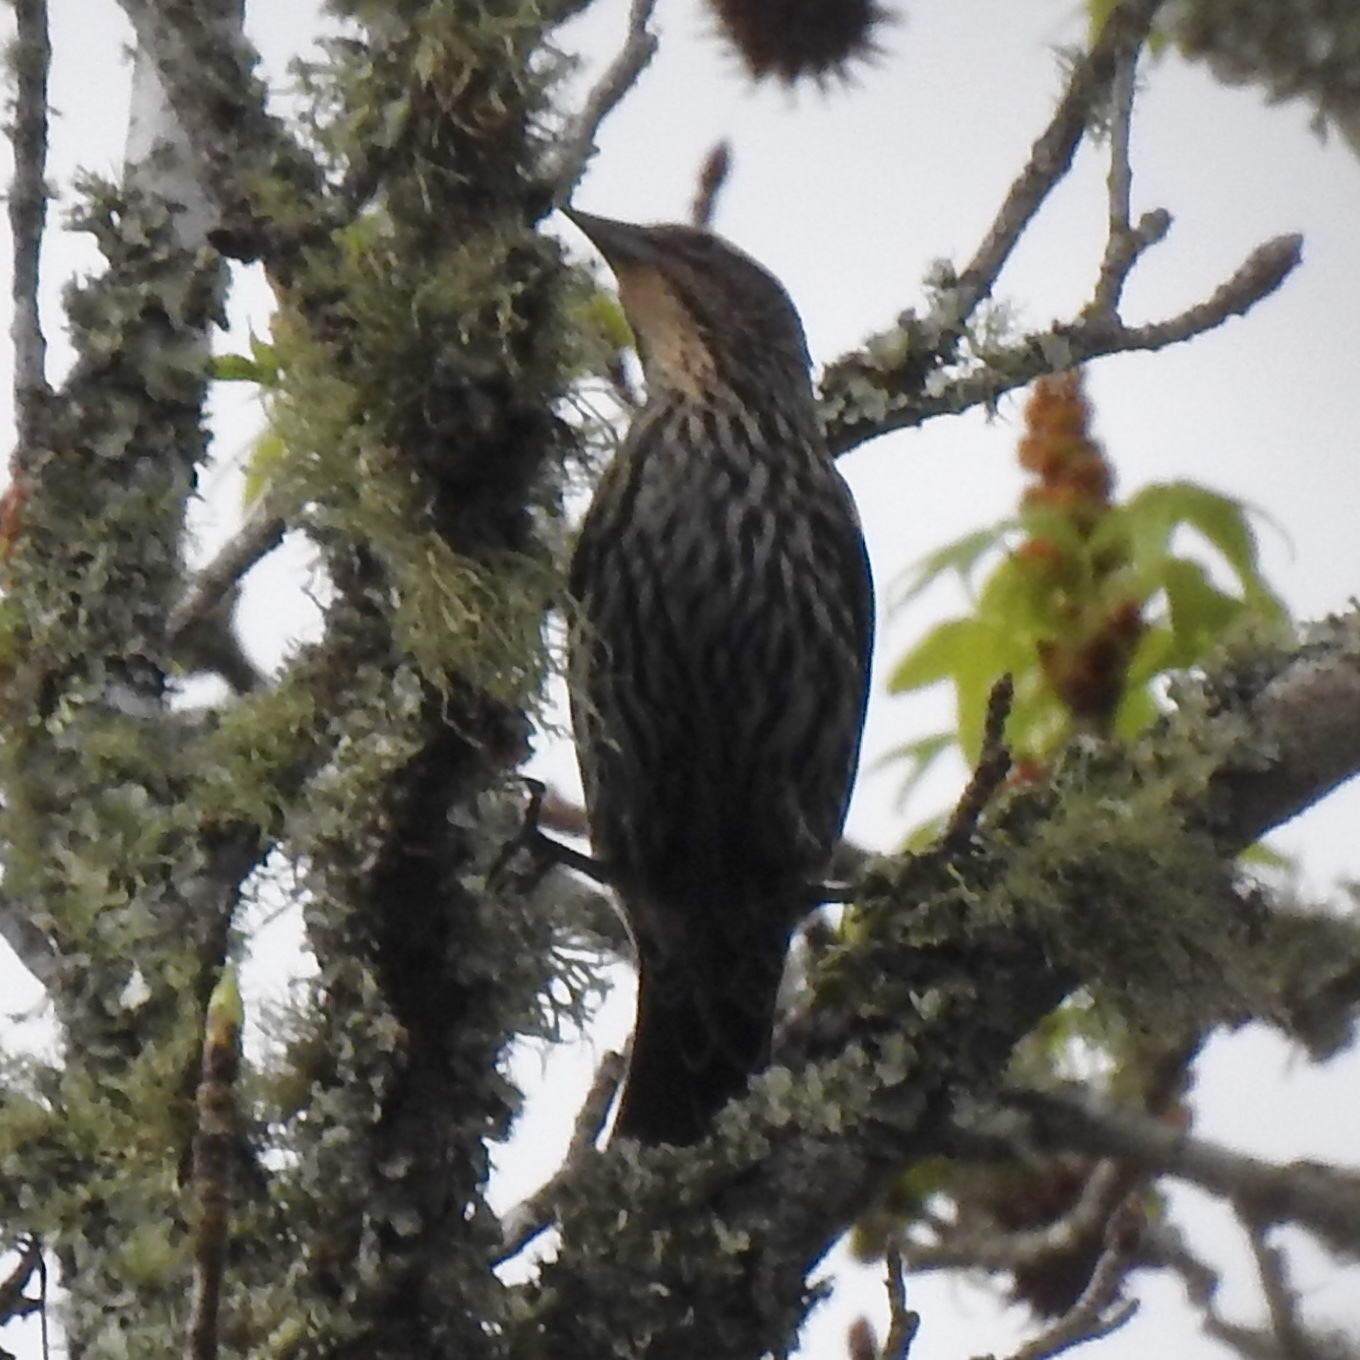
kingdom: Animalia
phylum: Chordata
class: Aves
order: Passeriformes
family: Icteridae
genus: Agelaius
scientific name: Agelaius phoeniceus
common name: Red-winged blackbird
